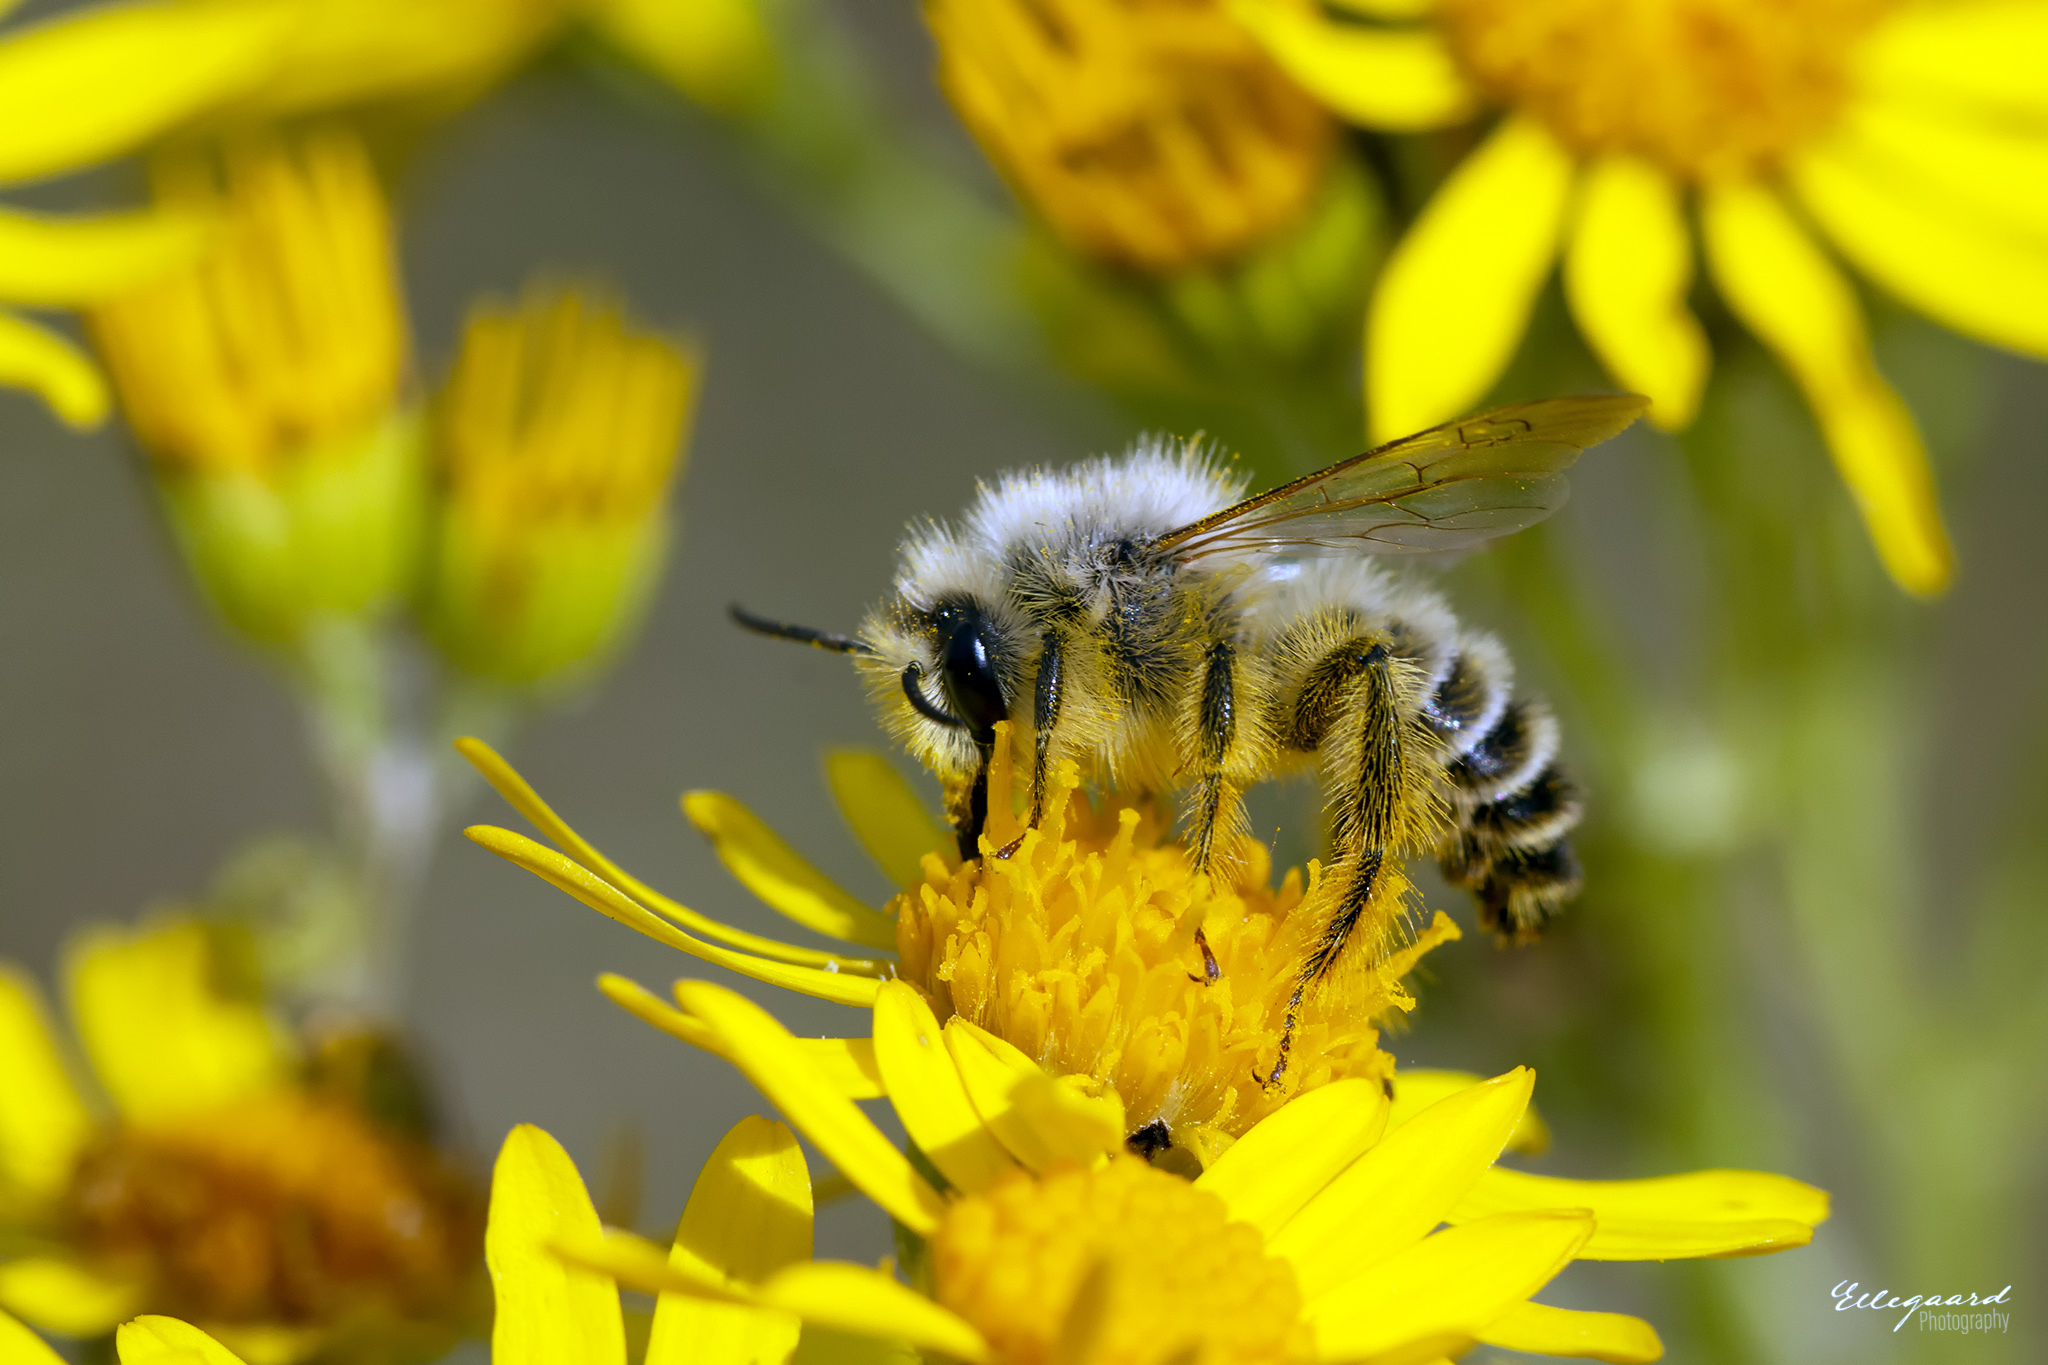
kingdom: Animalia
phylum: Arthropoda
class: Insecta
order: Hymenoptera
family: Melittidae
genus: Dasypoda
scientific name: Dasypoda hirtipes
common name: Pantaloon bee
